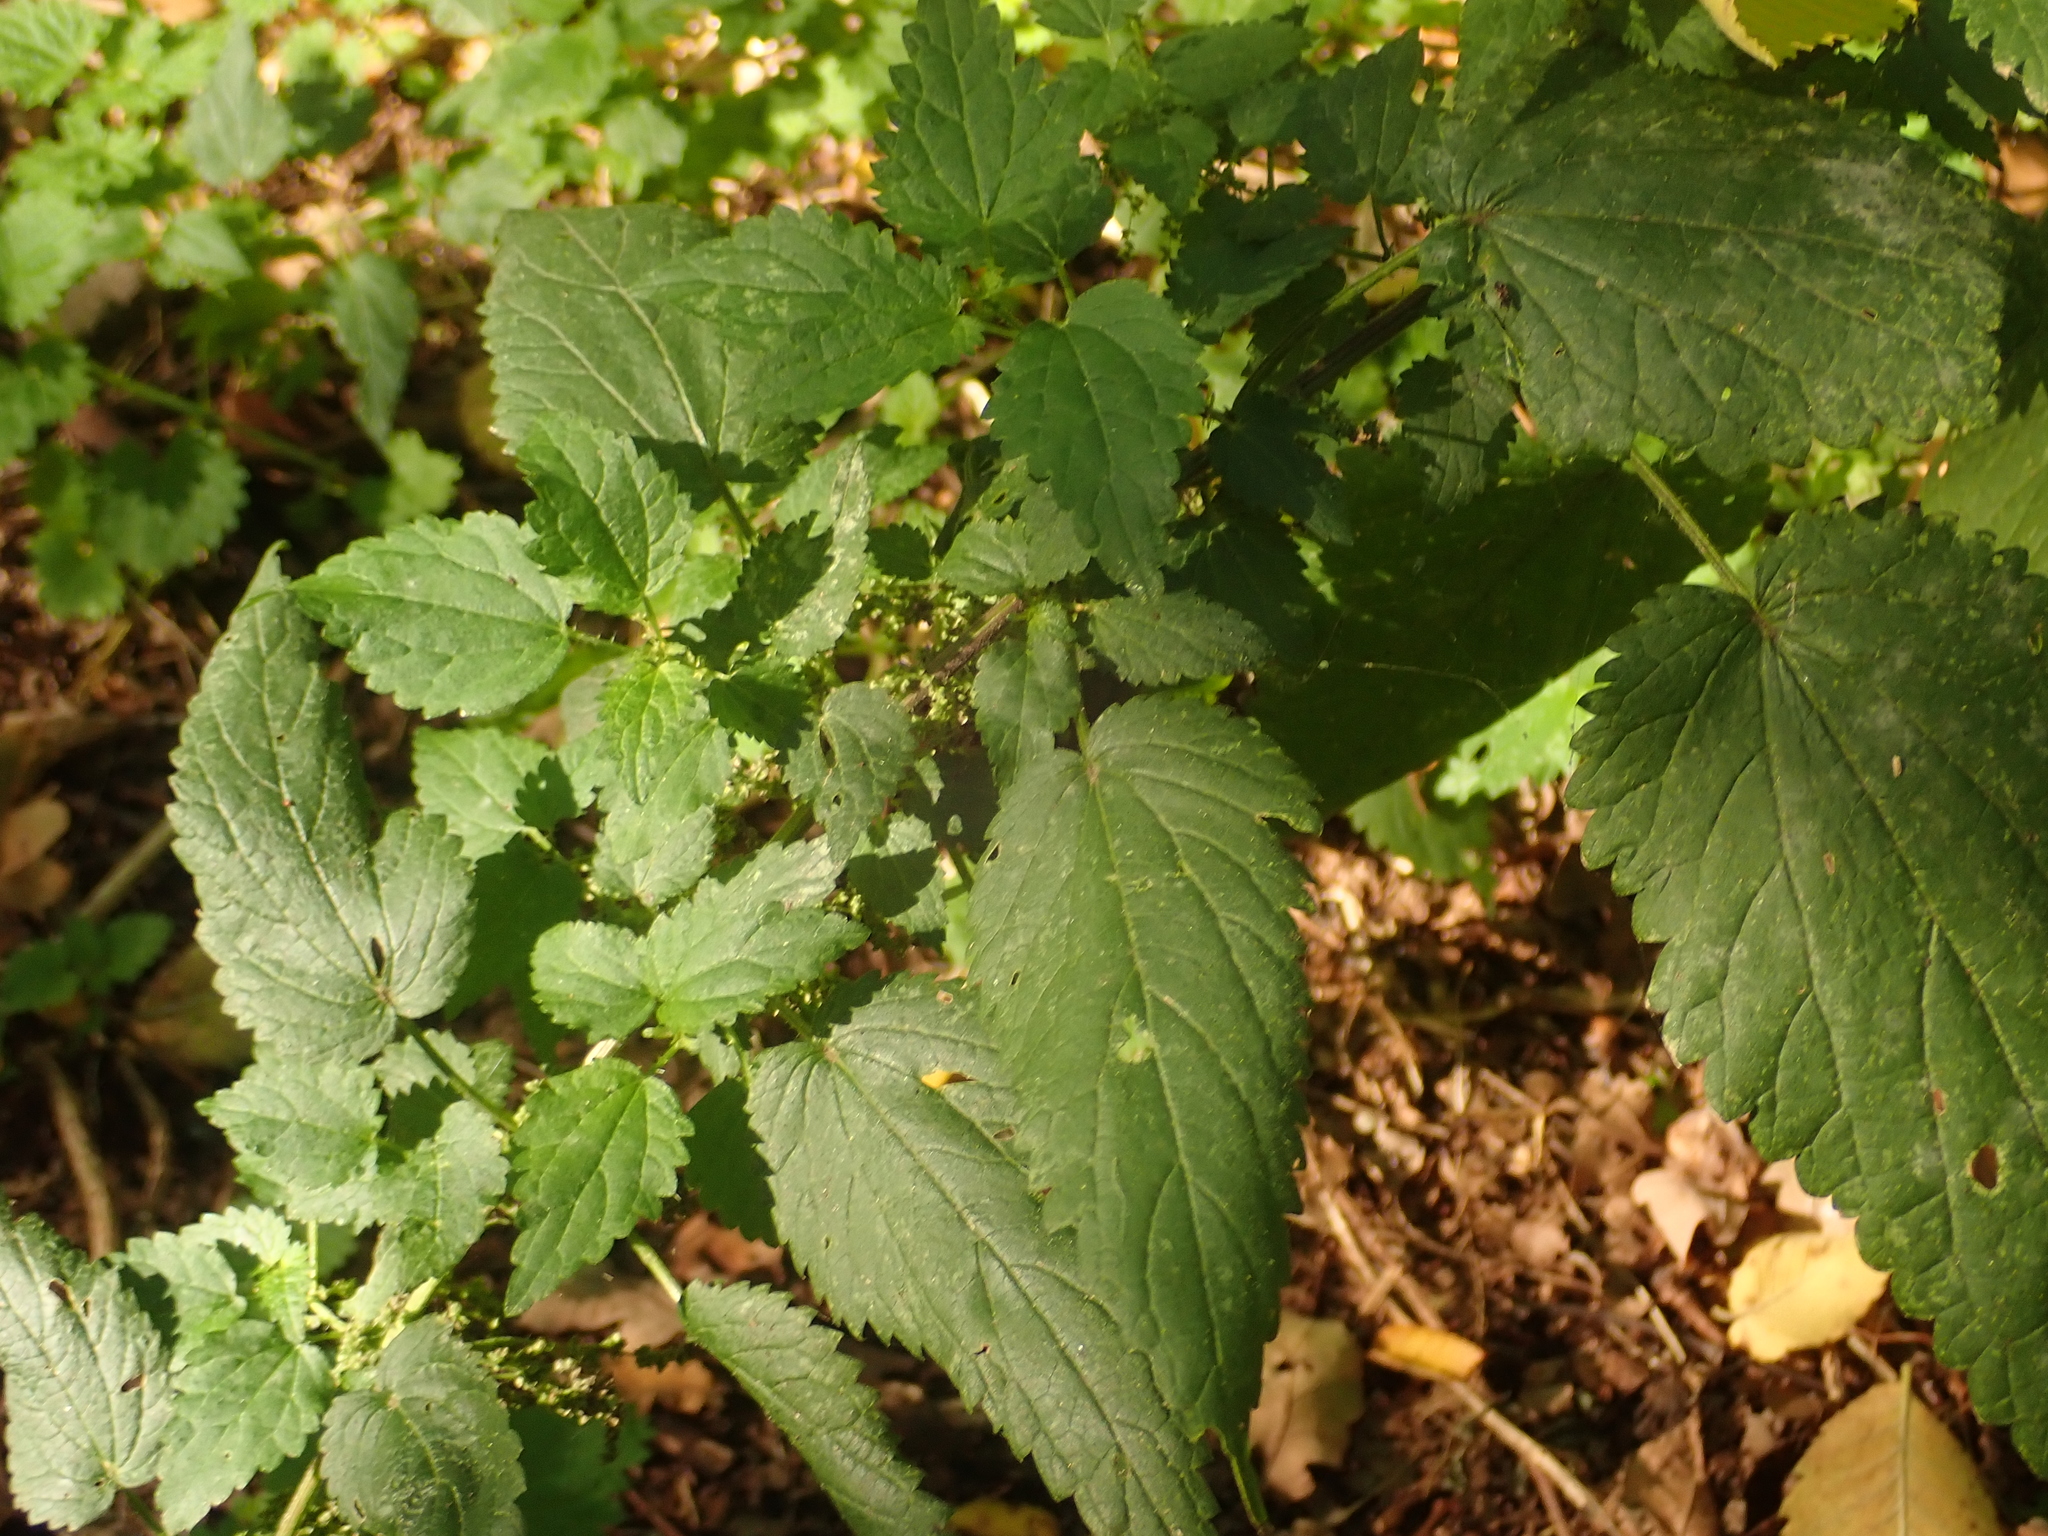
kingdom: Plantae
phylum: Tracheophyta
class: Magnoliopsida
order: Rosales
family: Urticaceae
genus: Urtica
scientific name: Urtica dioica
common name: Common nettle
